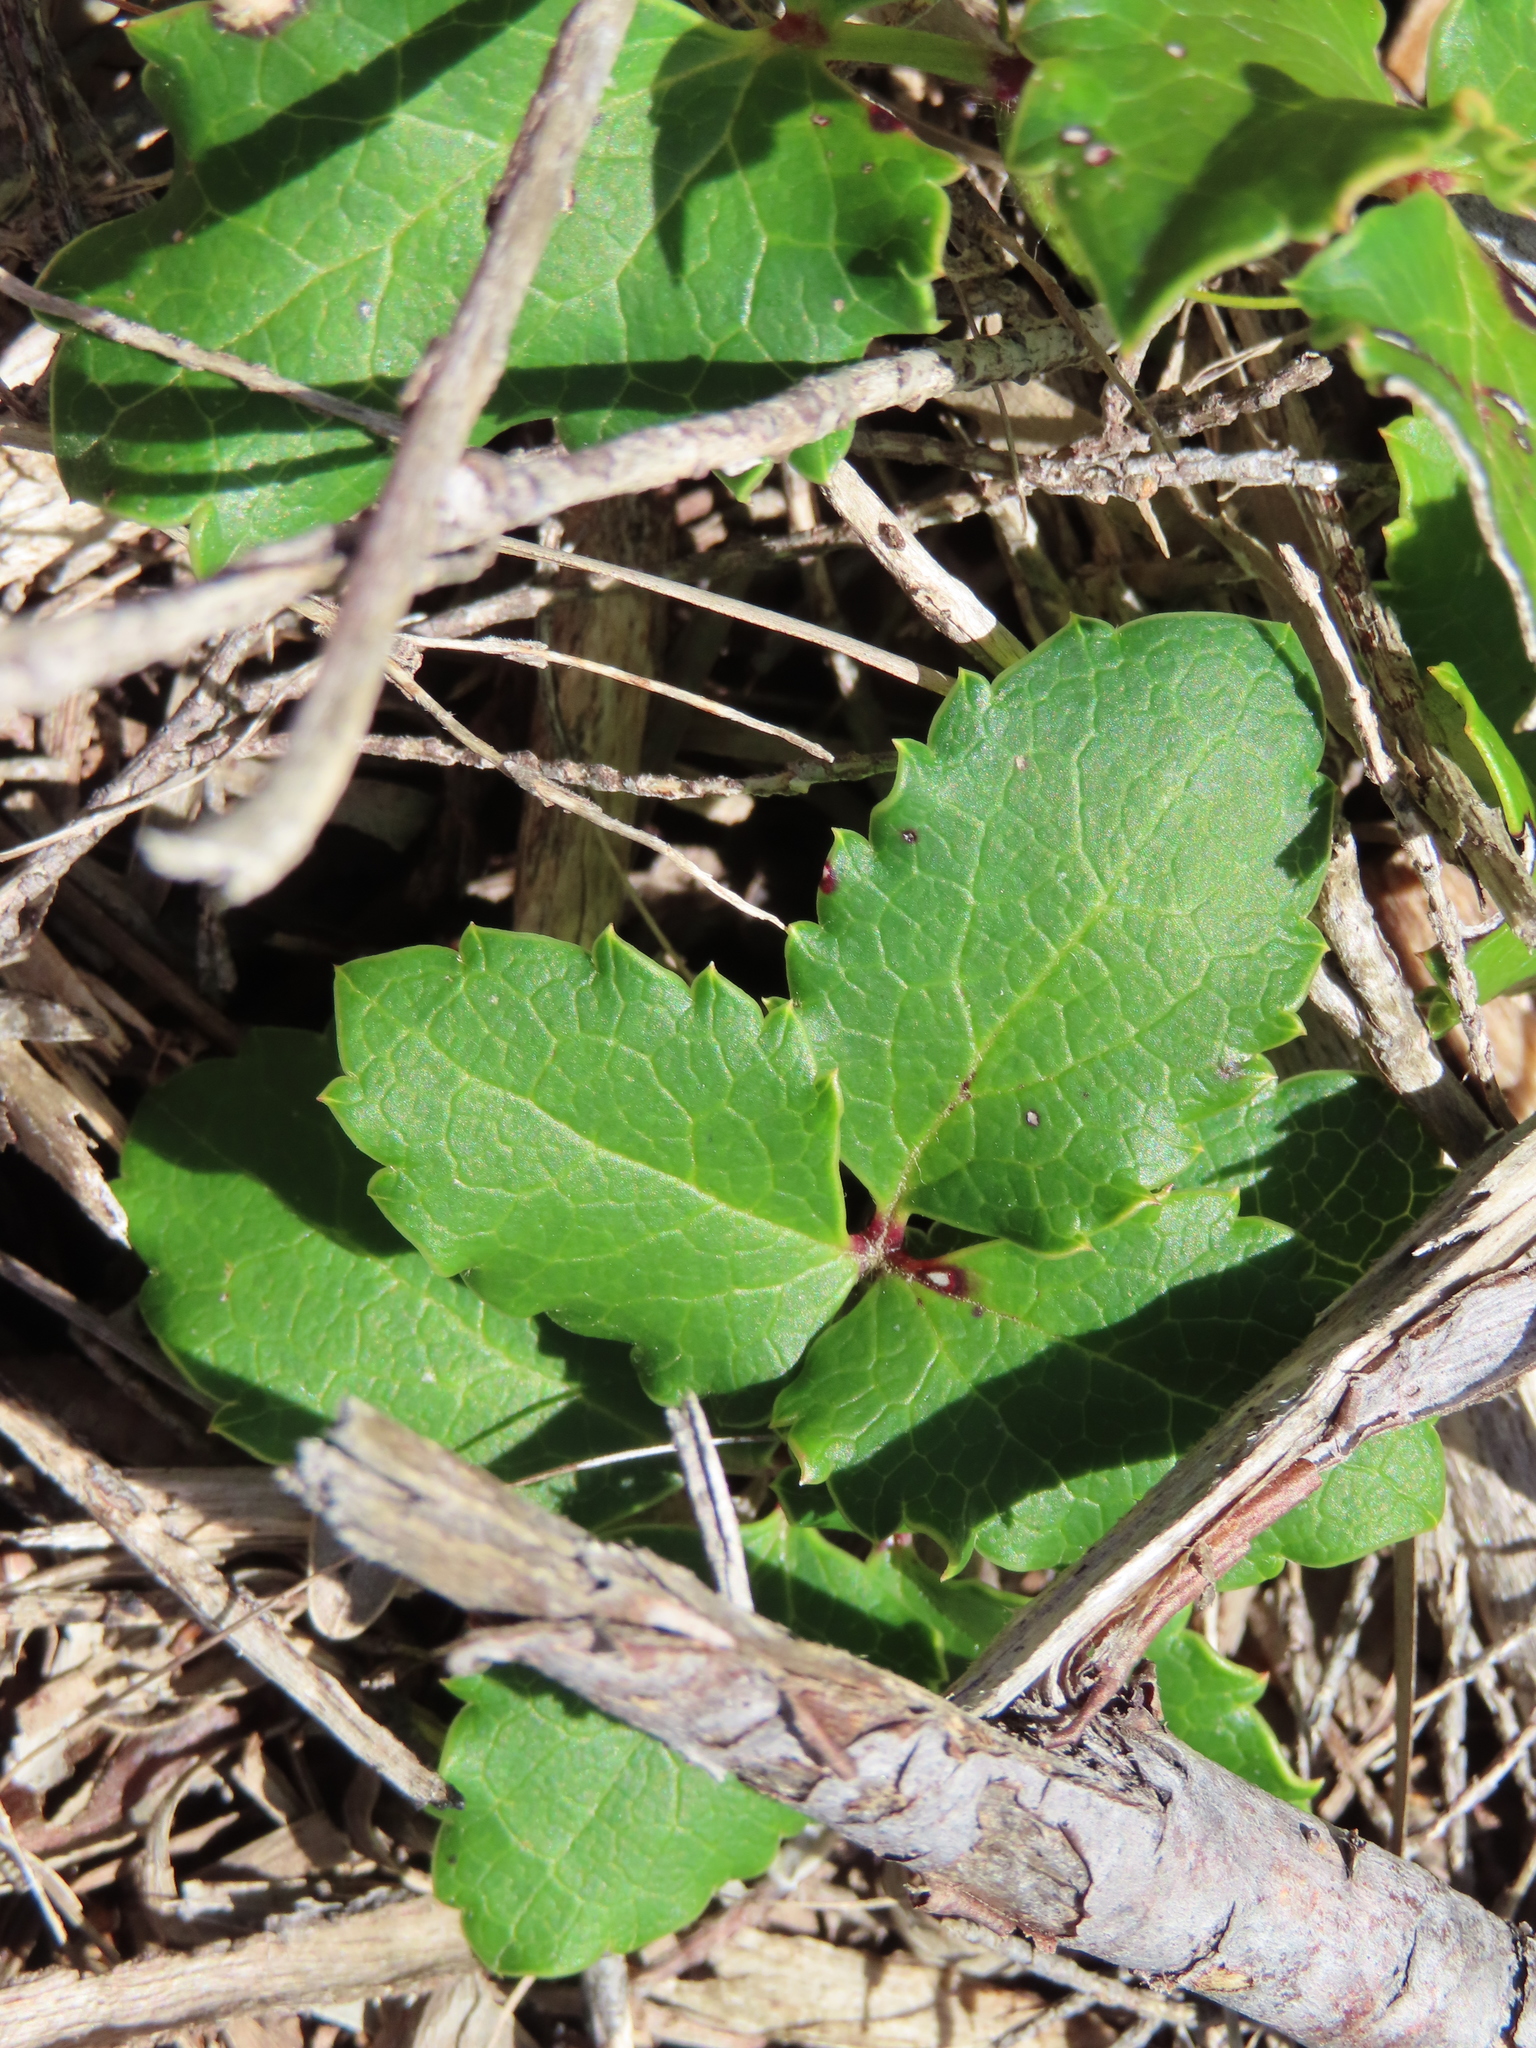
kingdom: Plantae
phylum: Tracheophyta
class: Magnoliopsida
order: Ranunculales
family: Ranunculaceae
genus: Knowltonia
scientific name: Knowltonia vesicatoria
